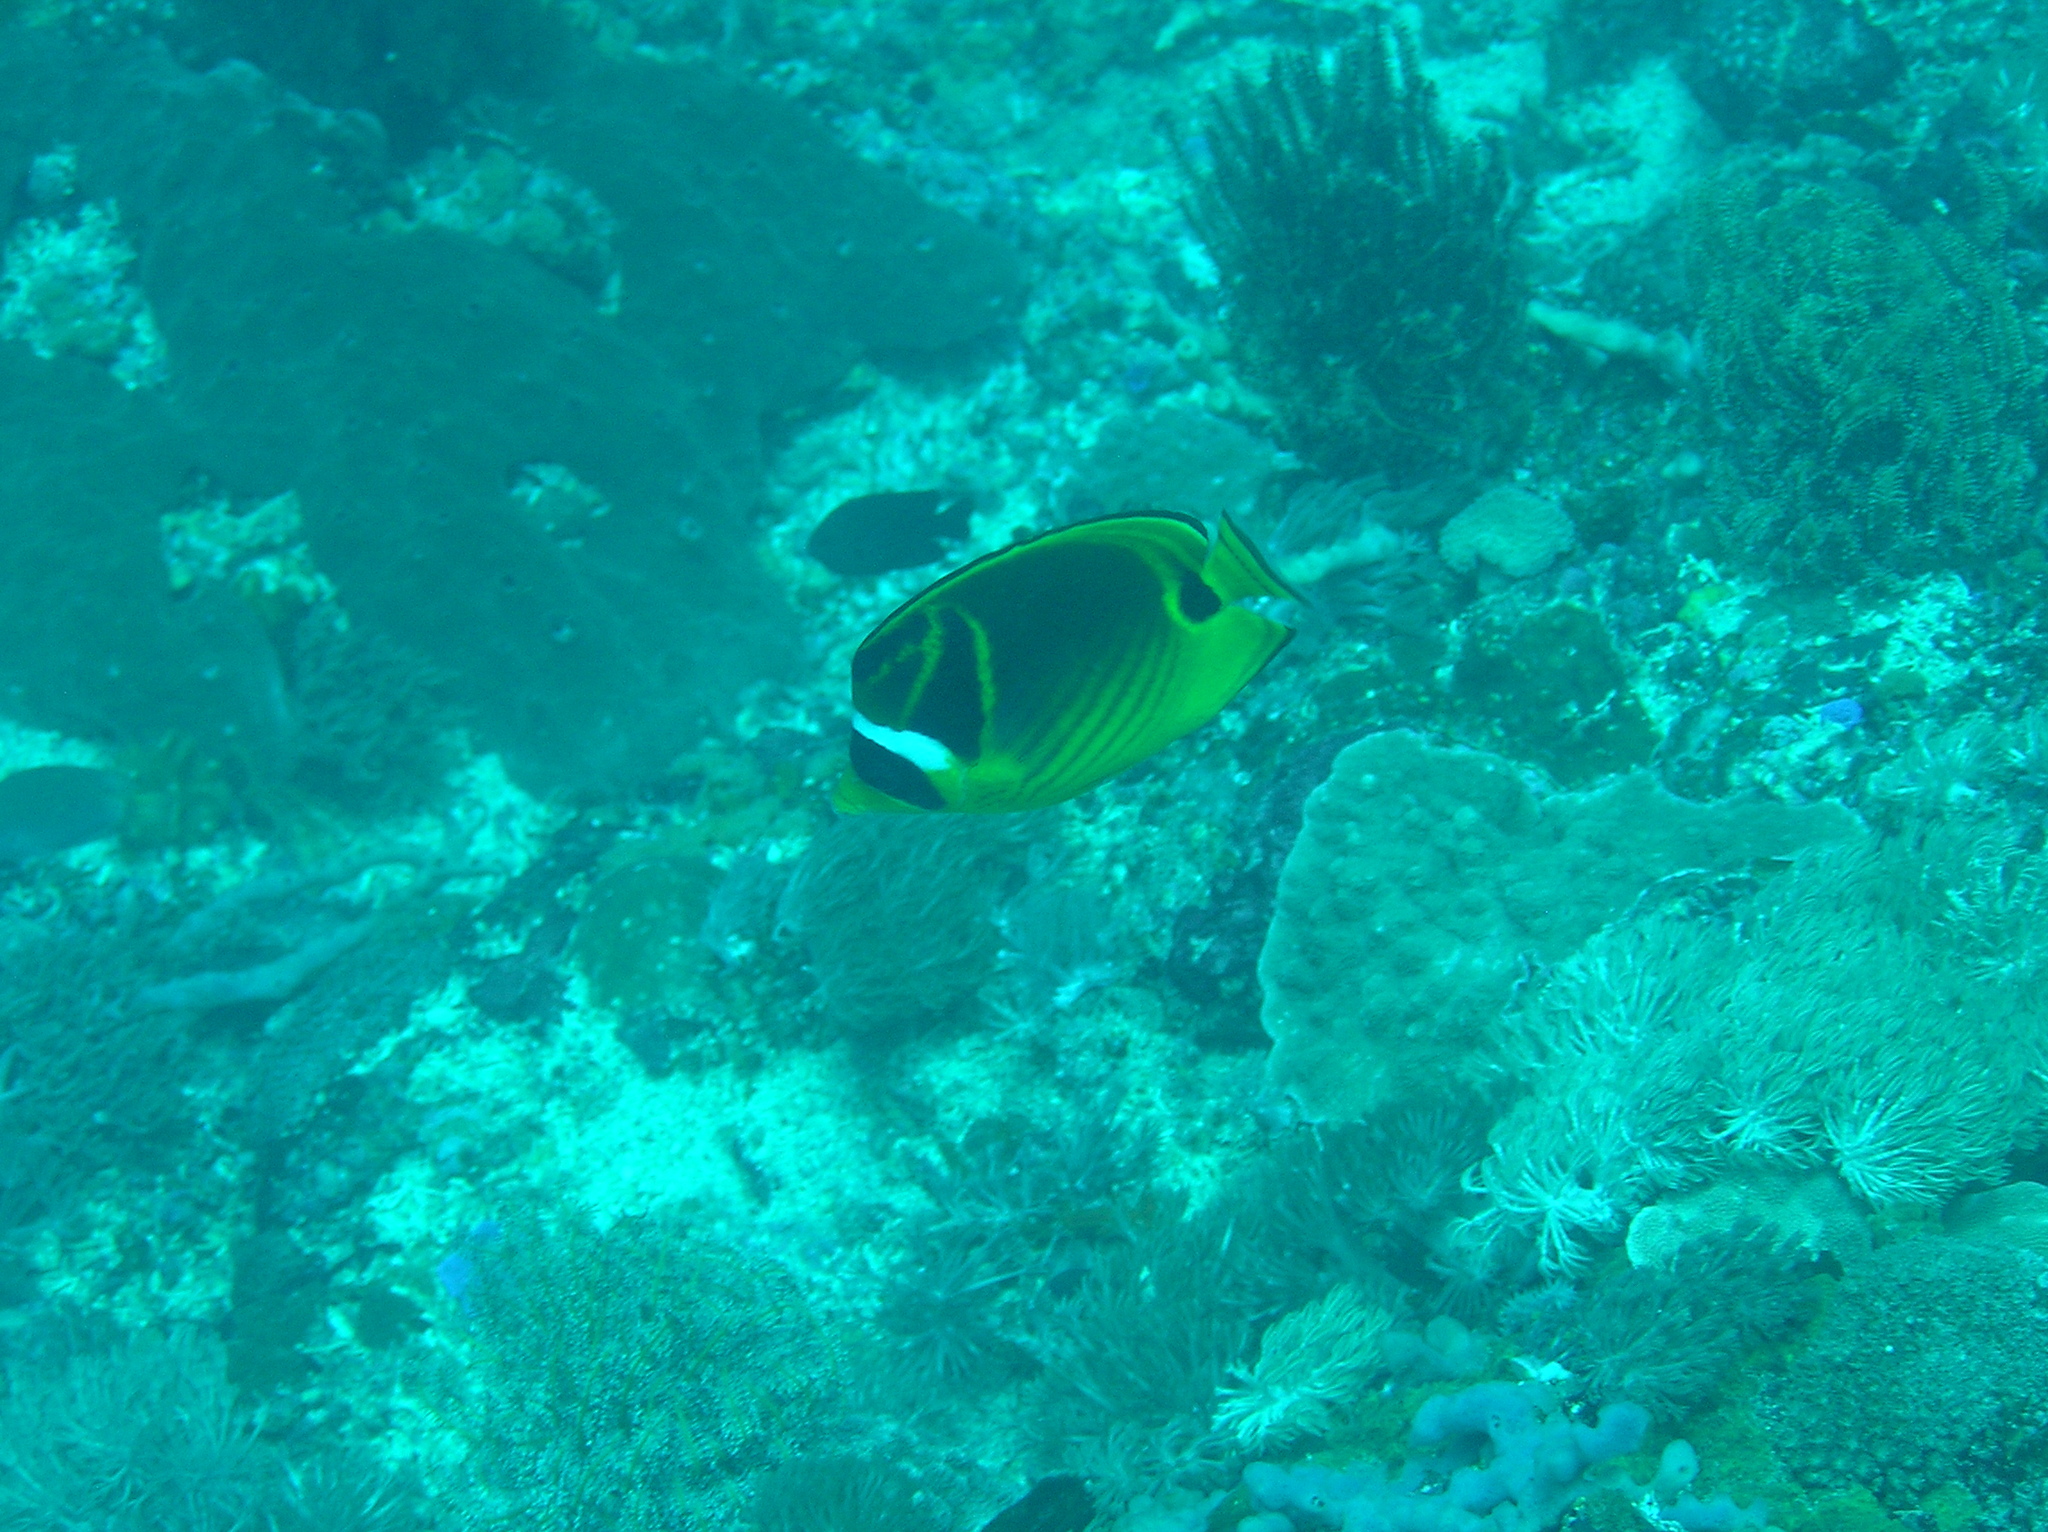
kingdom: Animalia
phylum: Chordata
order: Perciformes
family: Chaetodontidae
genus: Chaetodon
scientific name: Chaetodon lunula
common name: Raccoon butterflyfish
